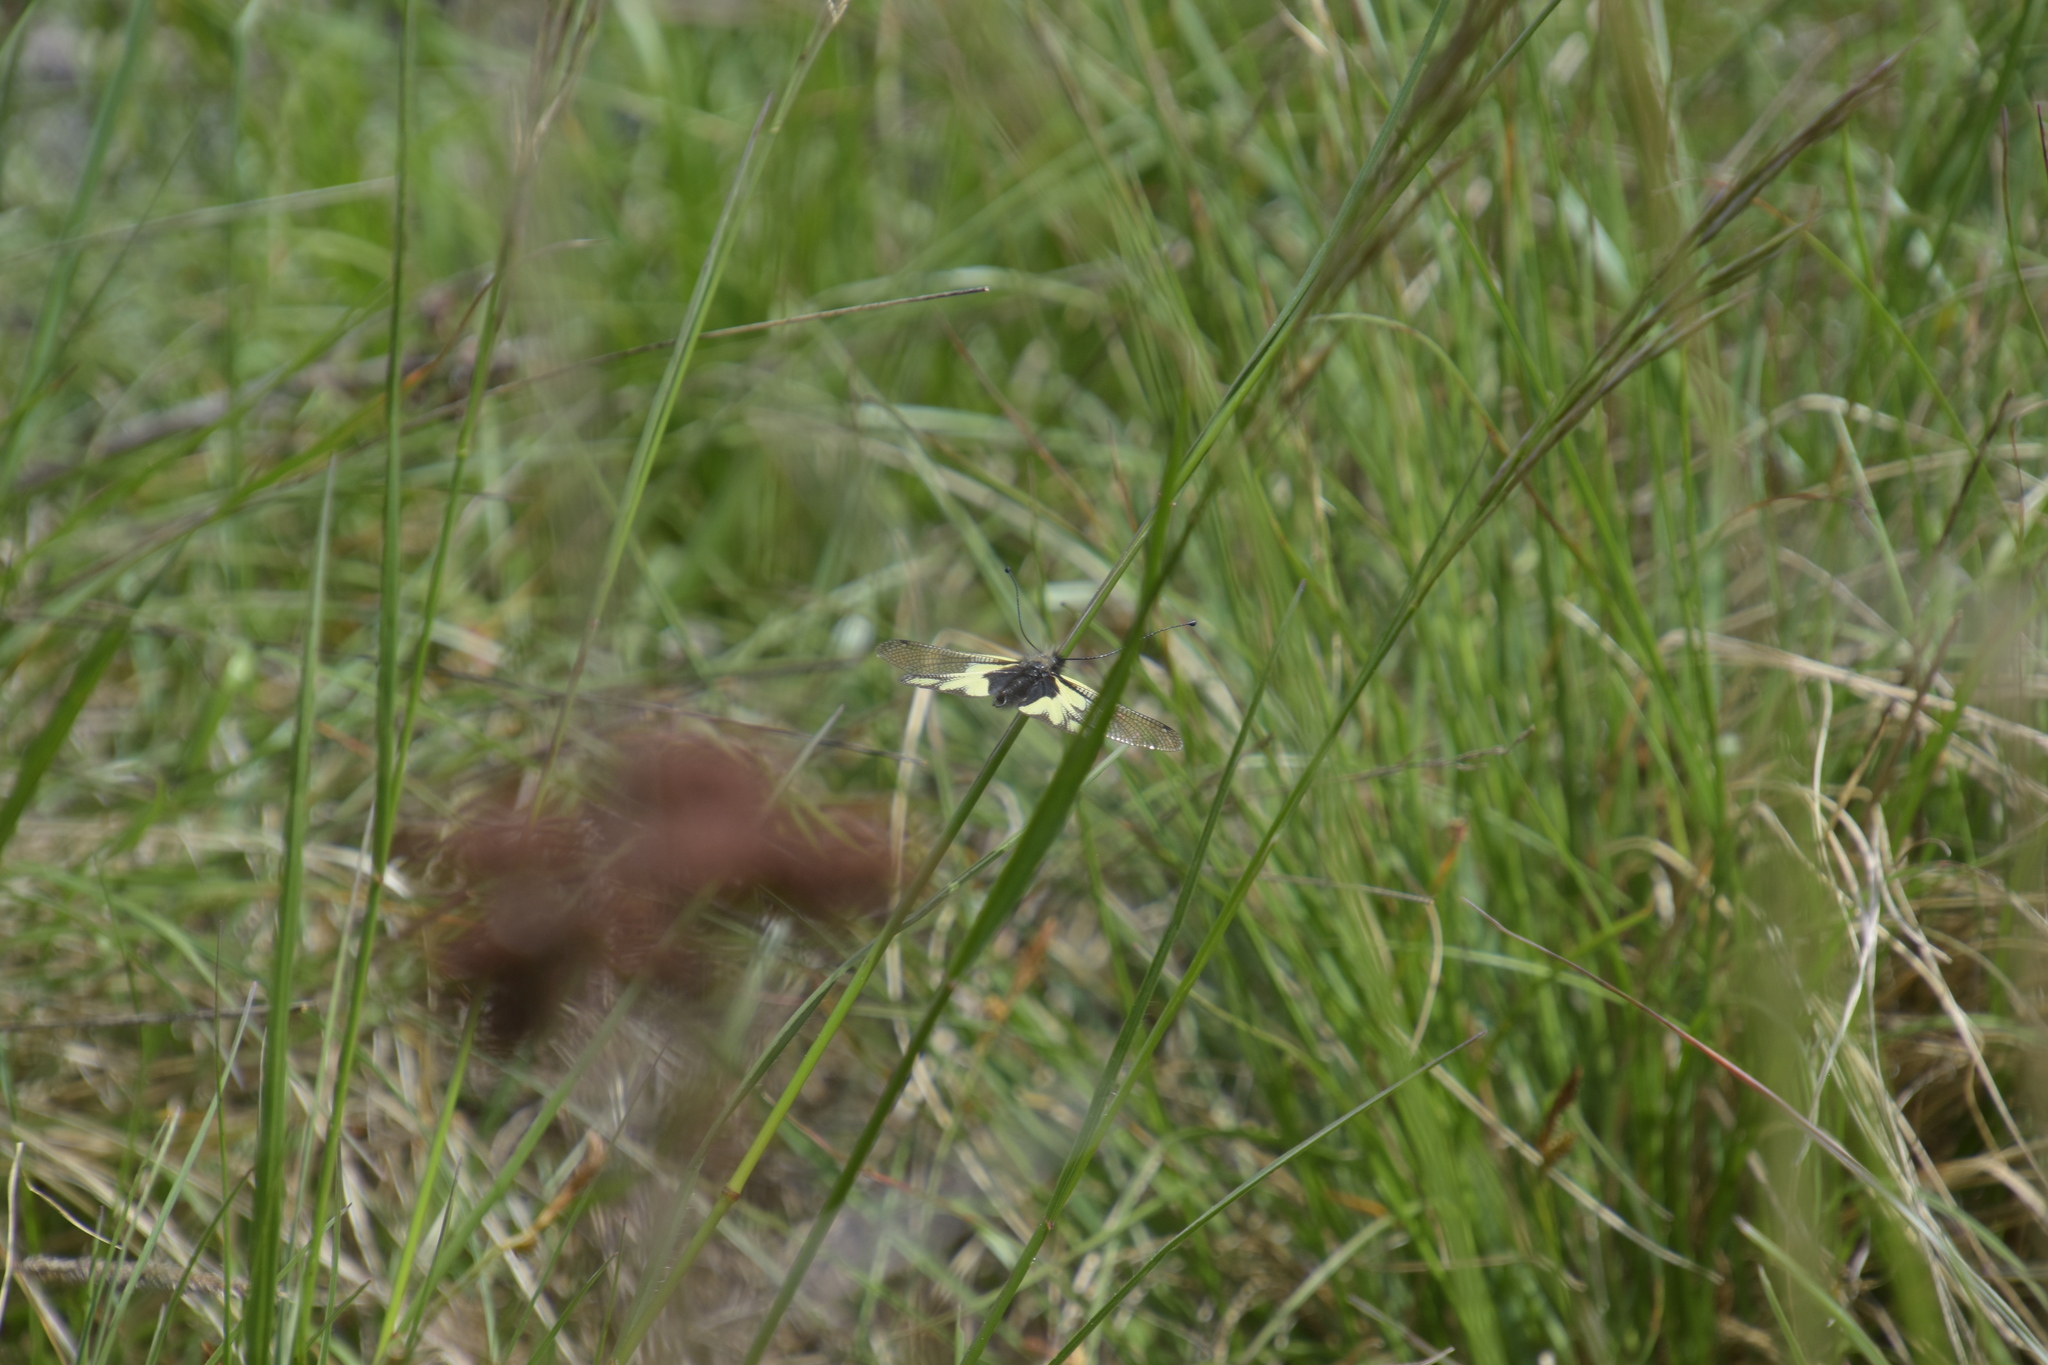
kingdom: Animalia
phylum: Arthropoda
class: Insecta
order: Neuroptera
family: Ascalaphidae
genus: Libelloides
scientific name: Libelloides coccajus
